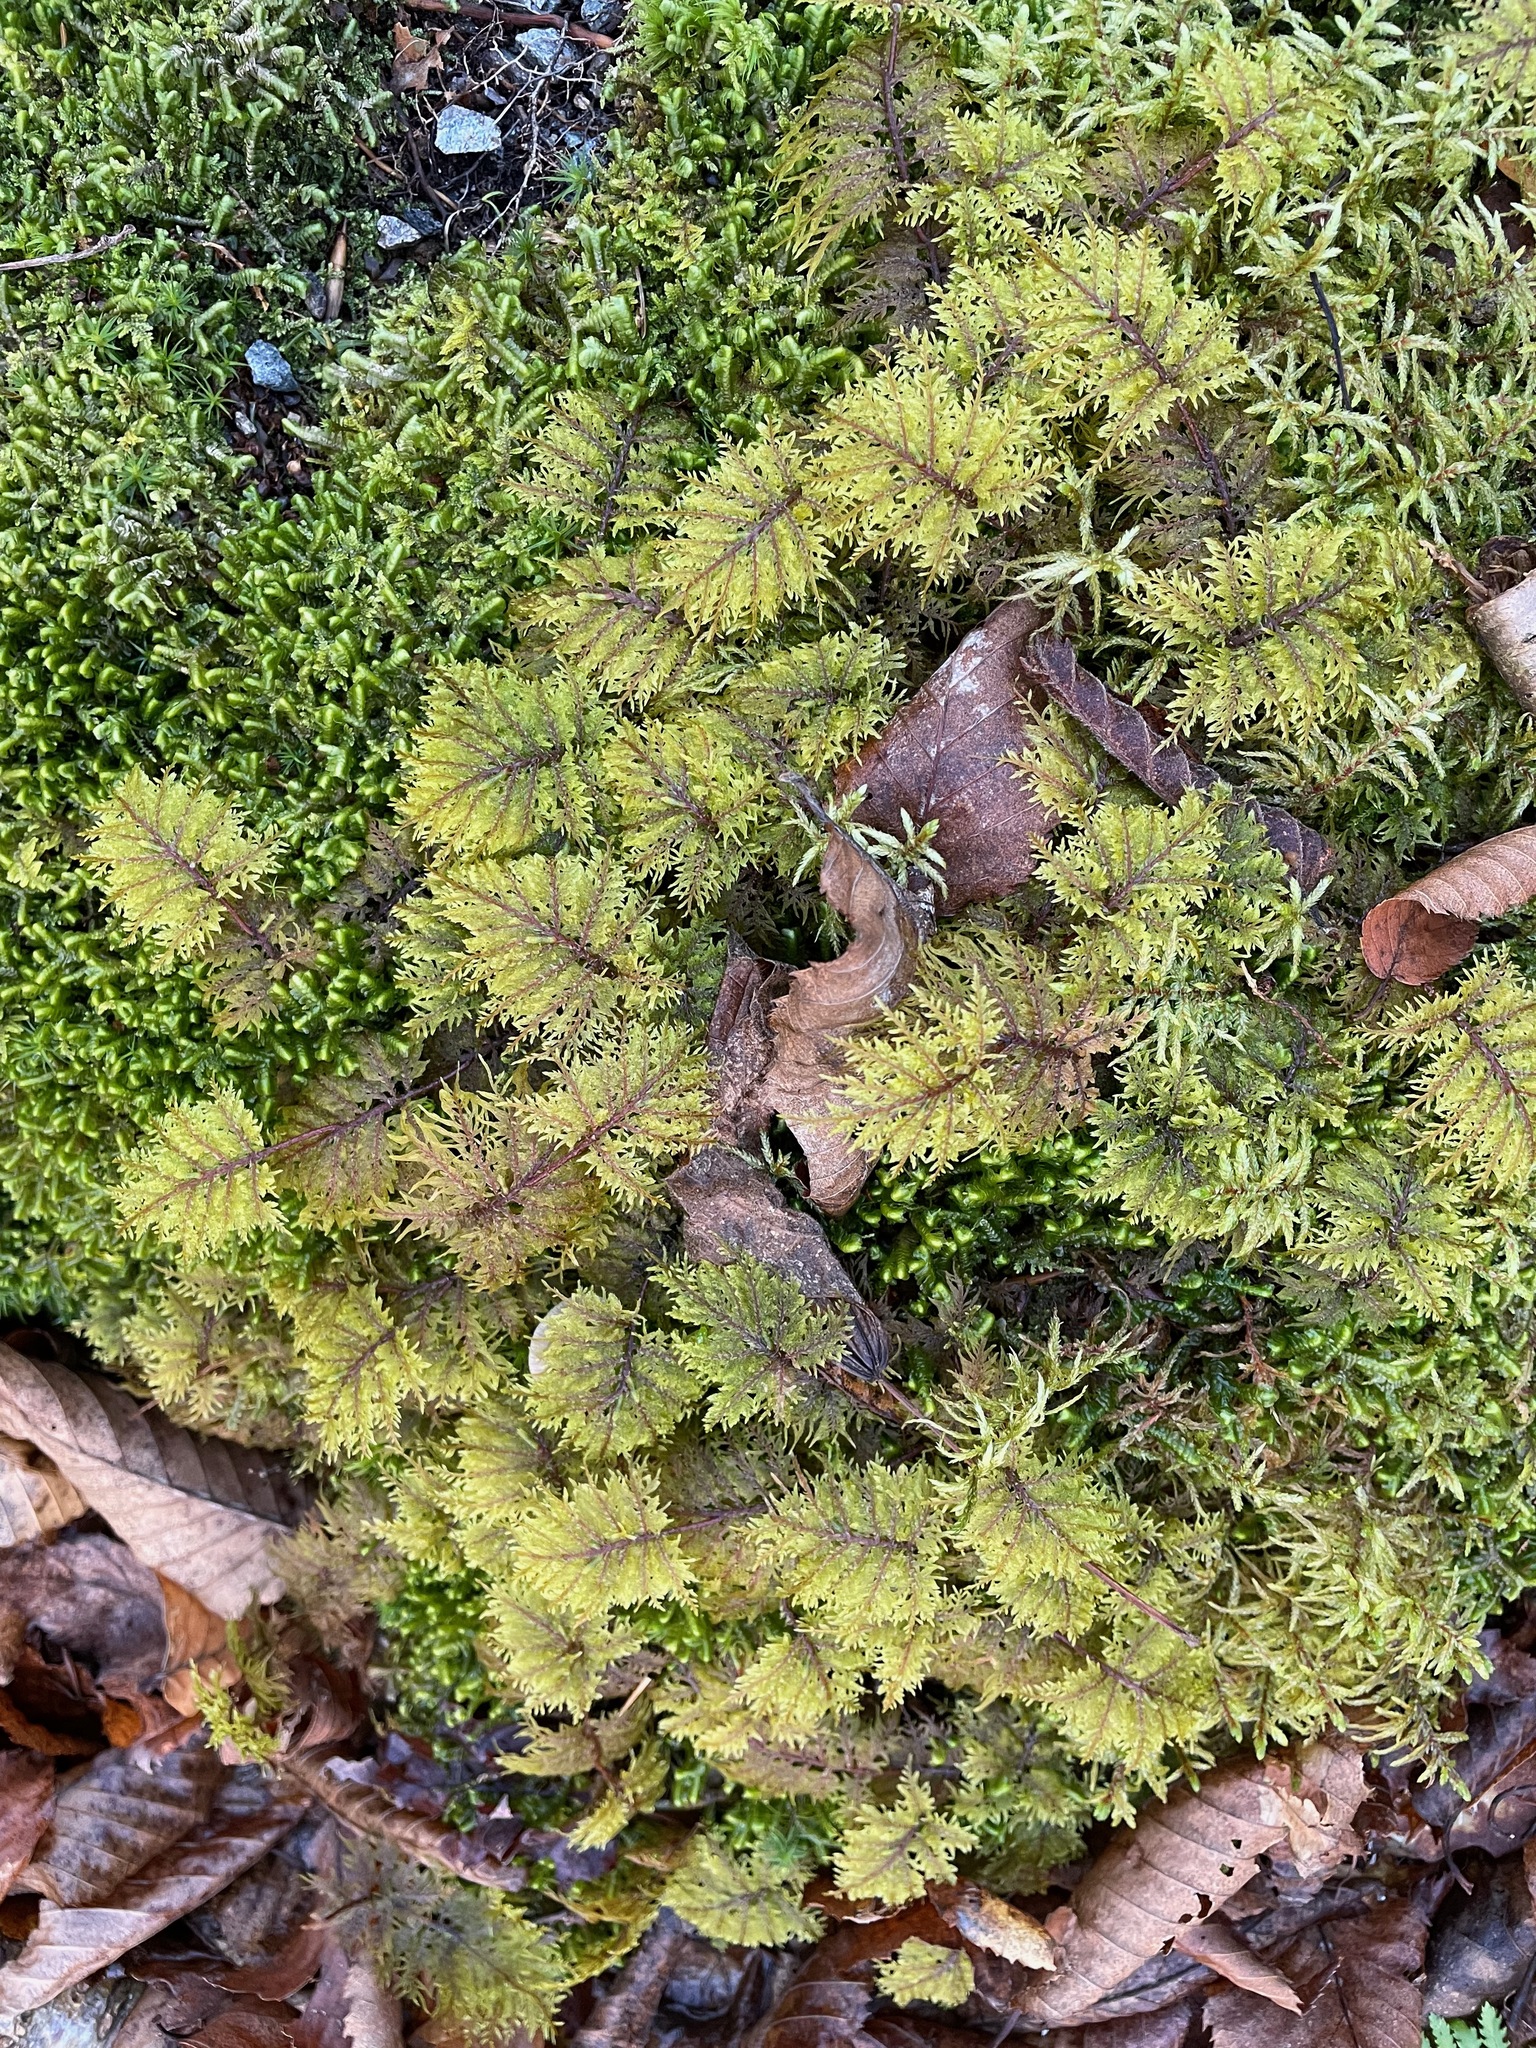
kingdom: Plantae
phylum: Bryophyta
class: Bryopsida
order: Hypnales
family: Hylocomiaceae
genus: Hylocomium
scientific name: Hylocomium splendens
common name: Stairstep moss
